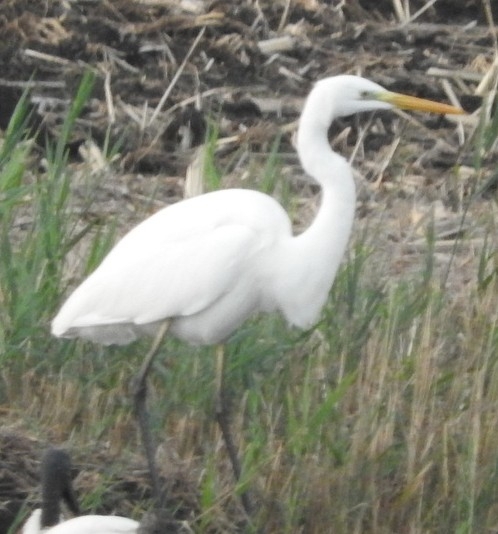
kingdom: Animalia
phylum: Chordata
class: Aves
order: Pelecaniformes
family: Ardeidae
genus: Ardea
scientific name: Ardea alba
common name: Great egret
